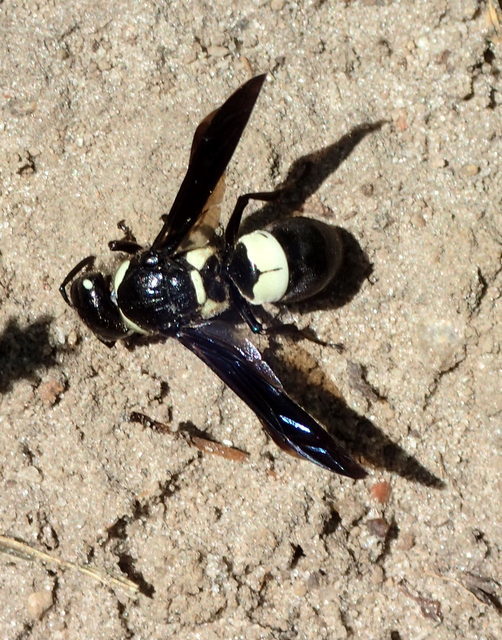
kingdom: Animalia
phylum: Arthropoda
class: Insecta
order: Hymenoptera
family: Eumenidae
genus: Euodynerus
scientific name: Euodynerus bidens
